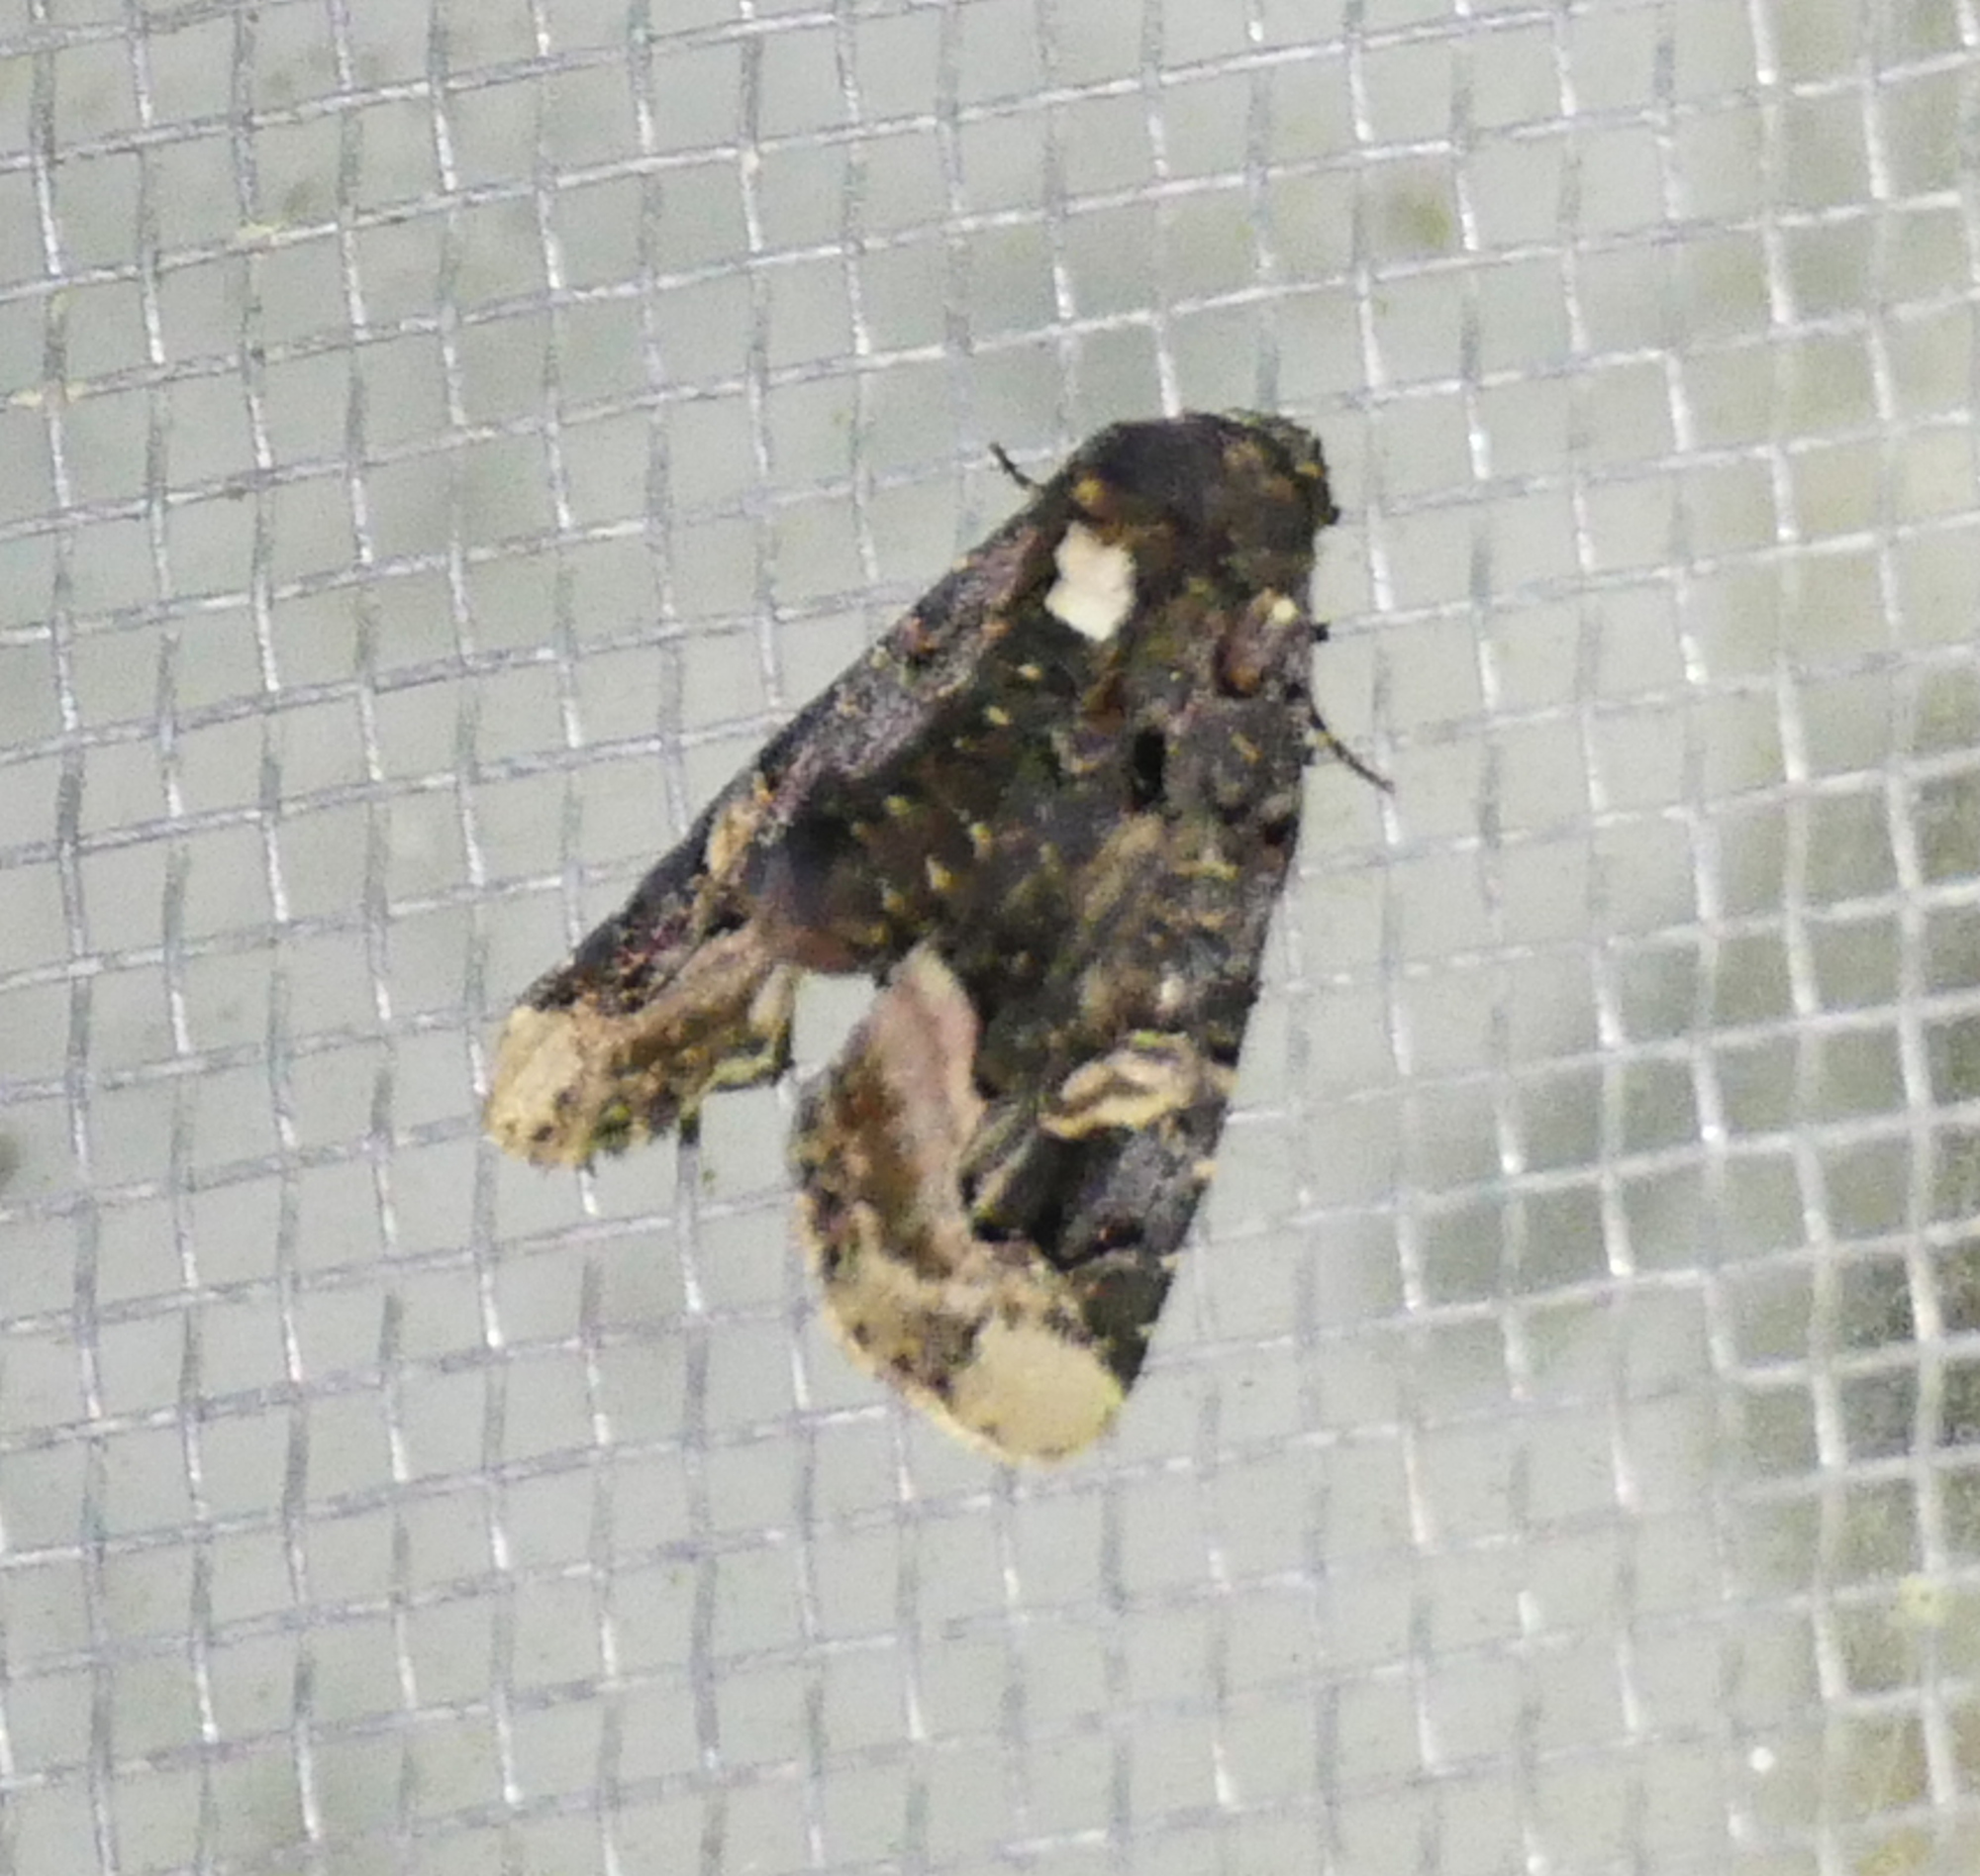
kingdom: Animalia
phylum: Arthropoda
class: Insecta
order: Lepidoptera
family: Noctuidae
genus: Homophoberia
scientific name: Homophoberia apicosa
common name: Black wedge-spot
